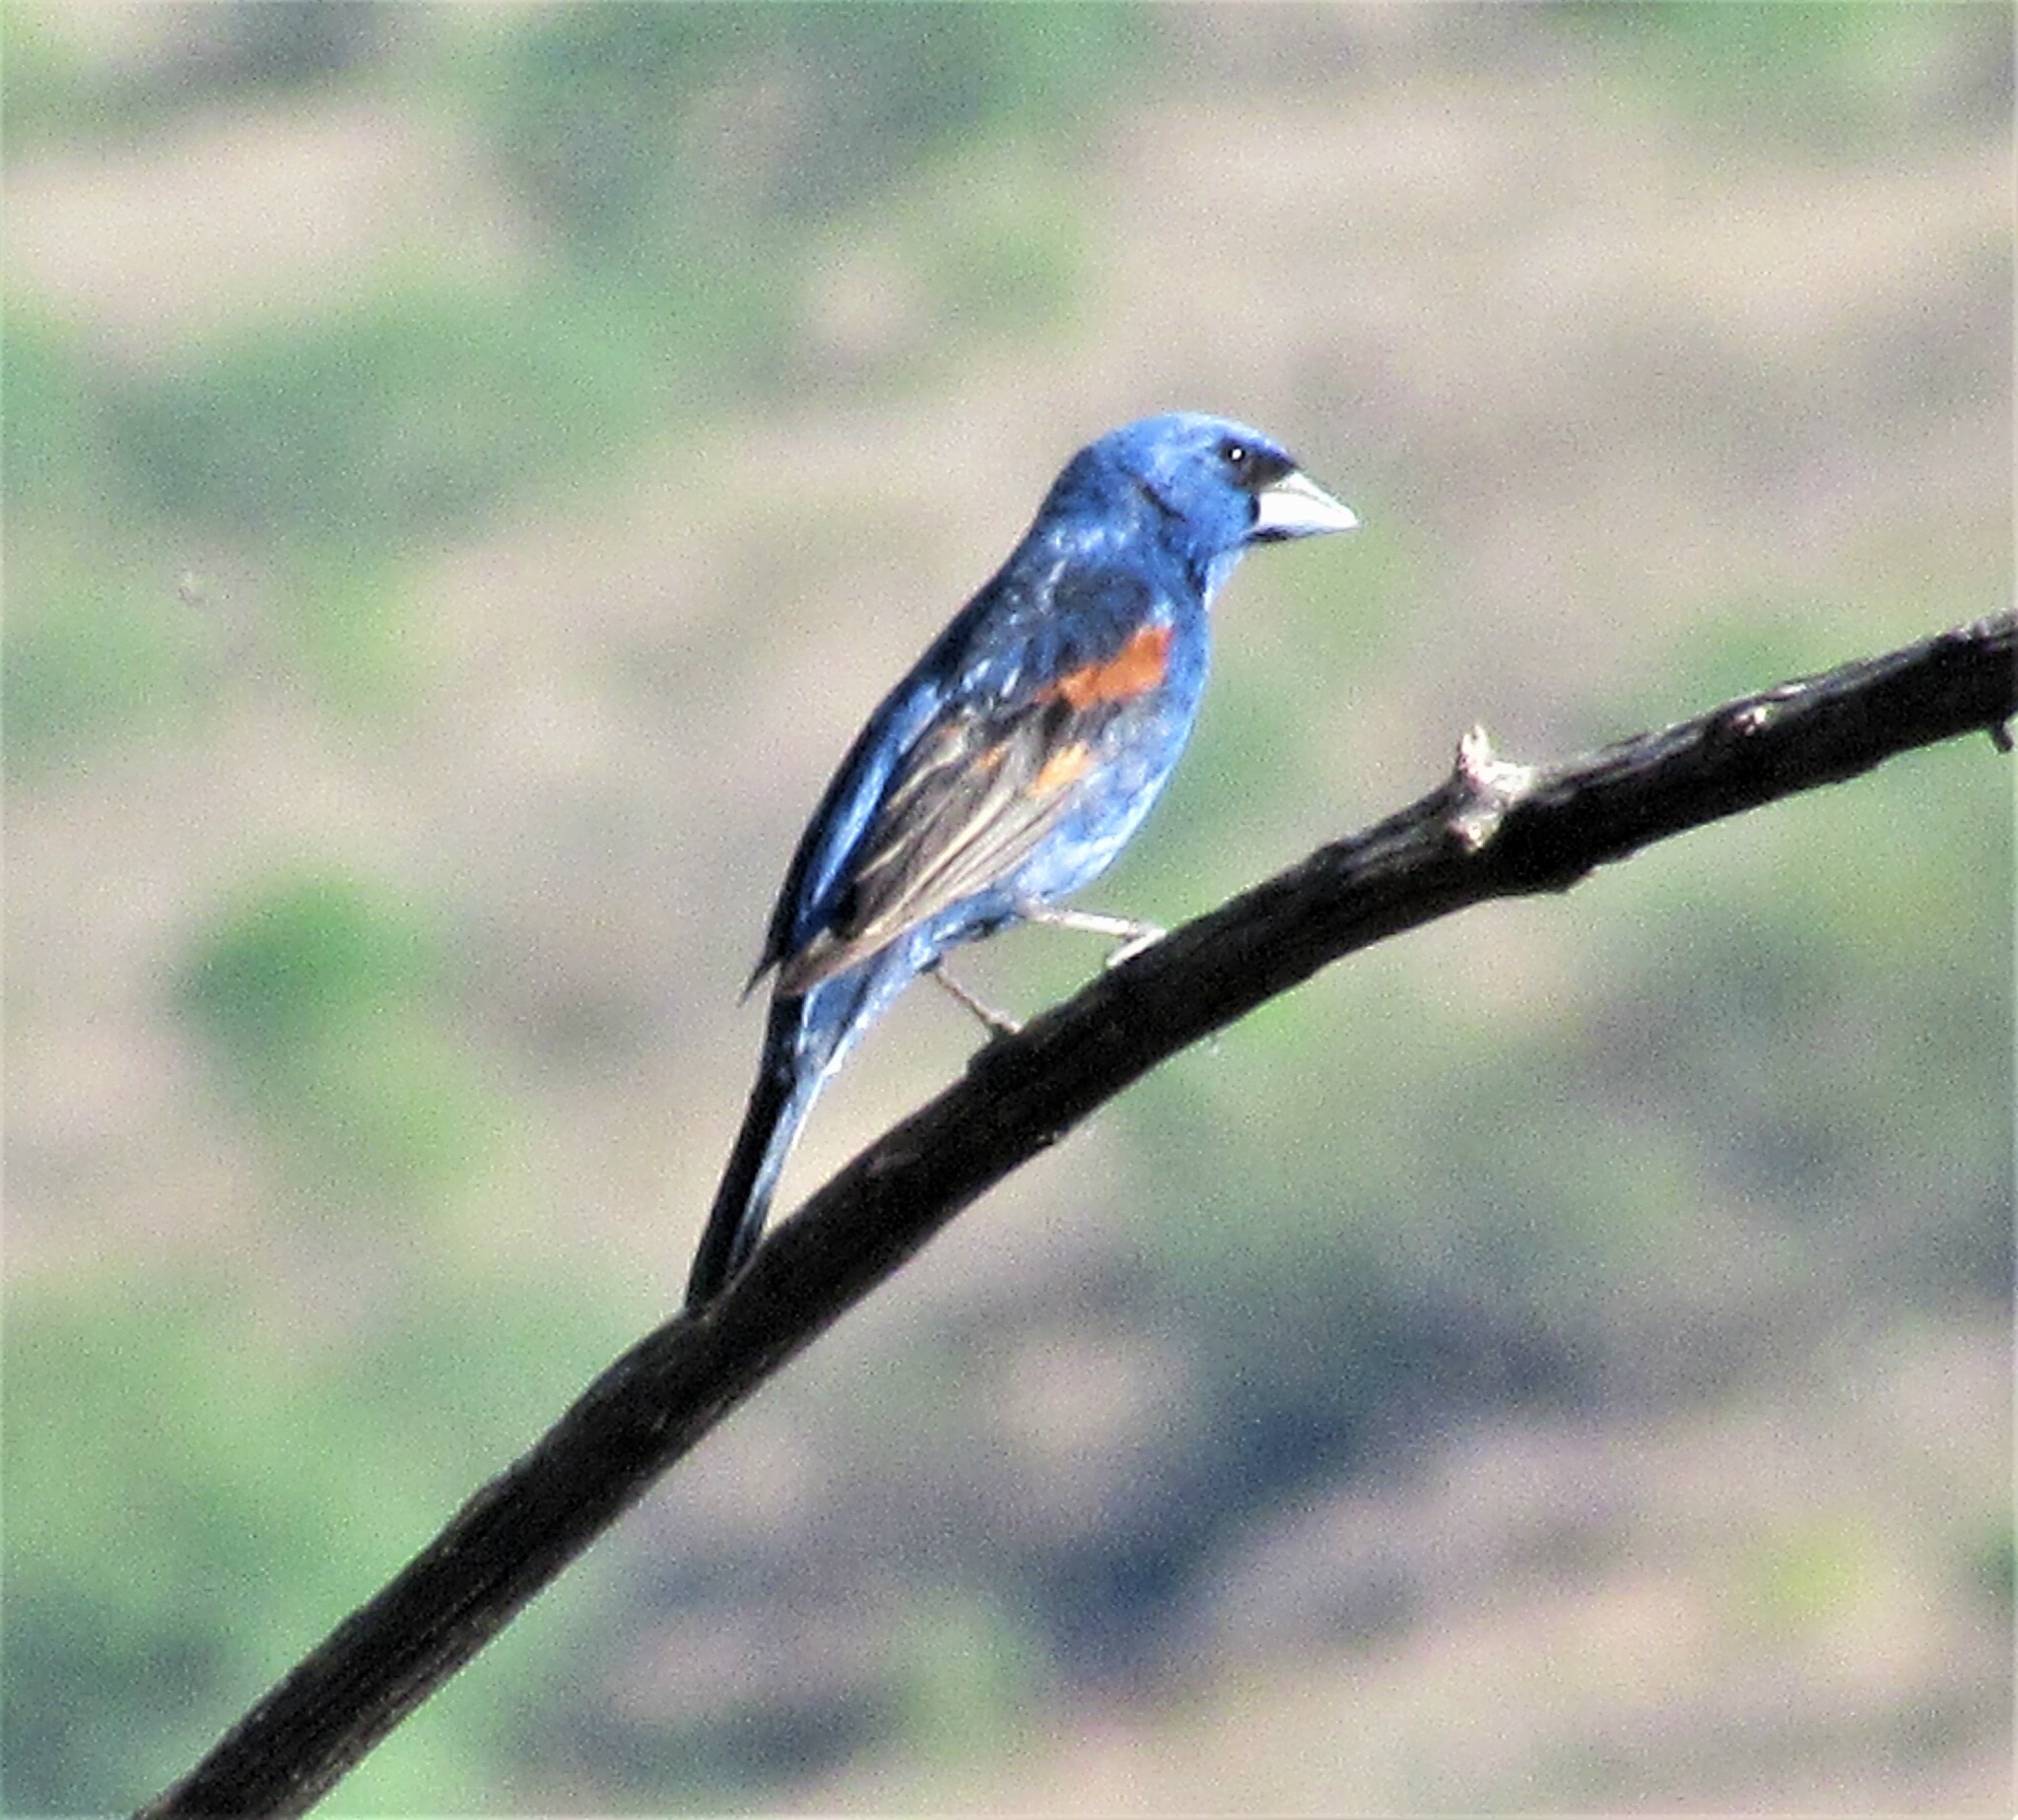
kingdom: Animalia
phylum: Chordata
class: Aves
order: Passeriformes
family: Cardinalidae
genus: Passerina
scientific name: Passerina caerulea
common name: Blue grosbeak
